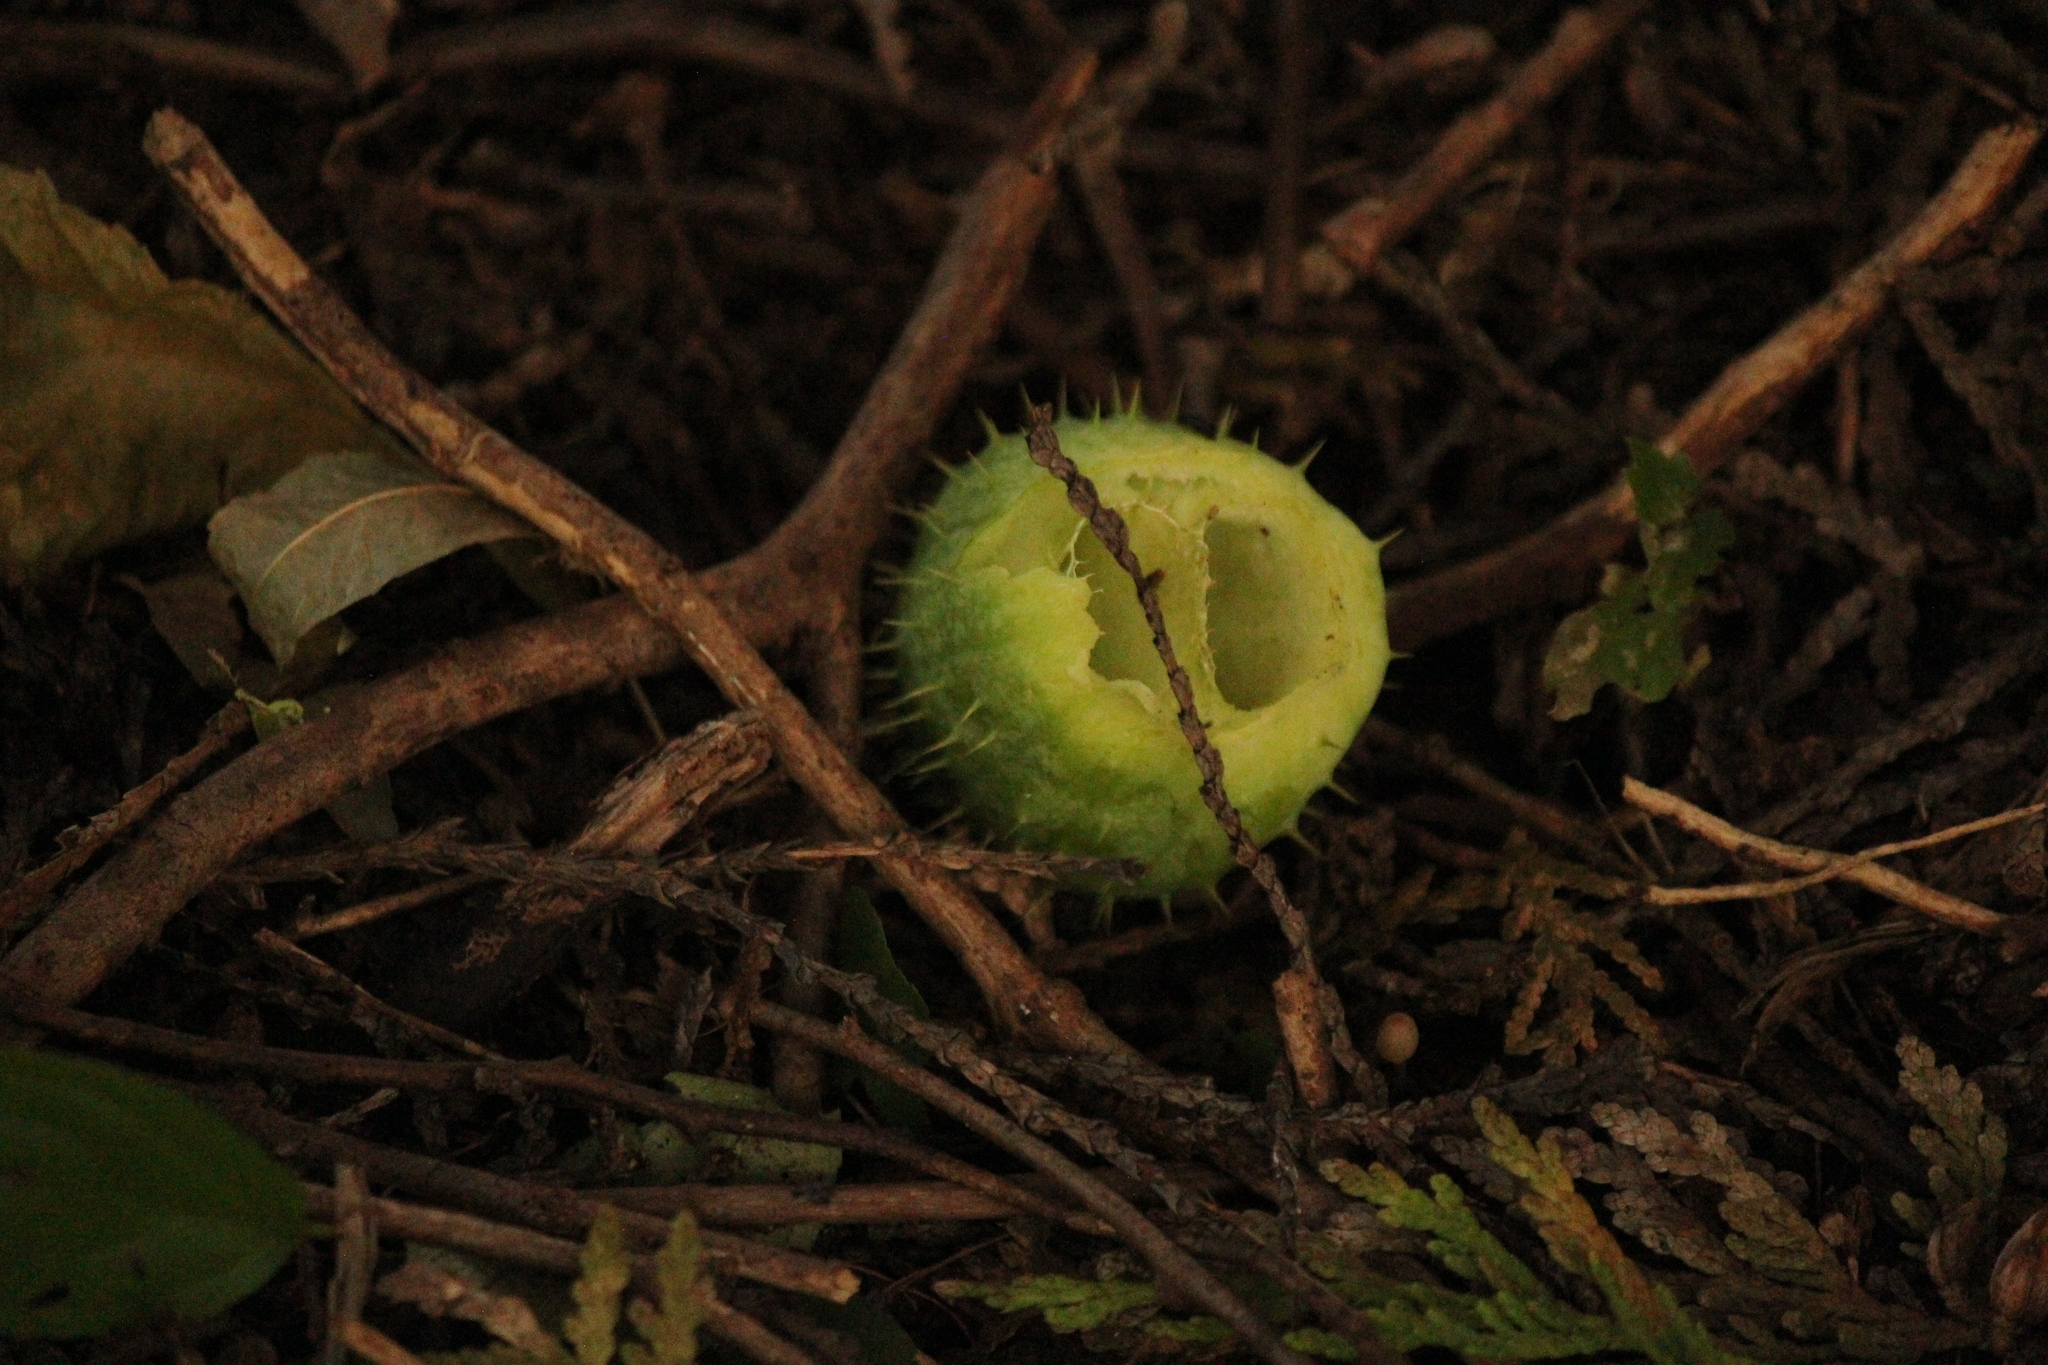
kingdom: Plantae
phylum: Tracheophyta
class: Magnoliopsida
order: Cucurbitales
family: Cucurbitaceae
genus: Echinocystis
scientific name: Echinocystis lobata
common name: Wild cucumber
